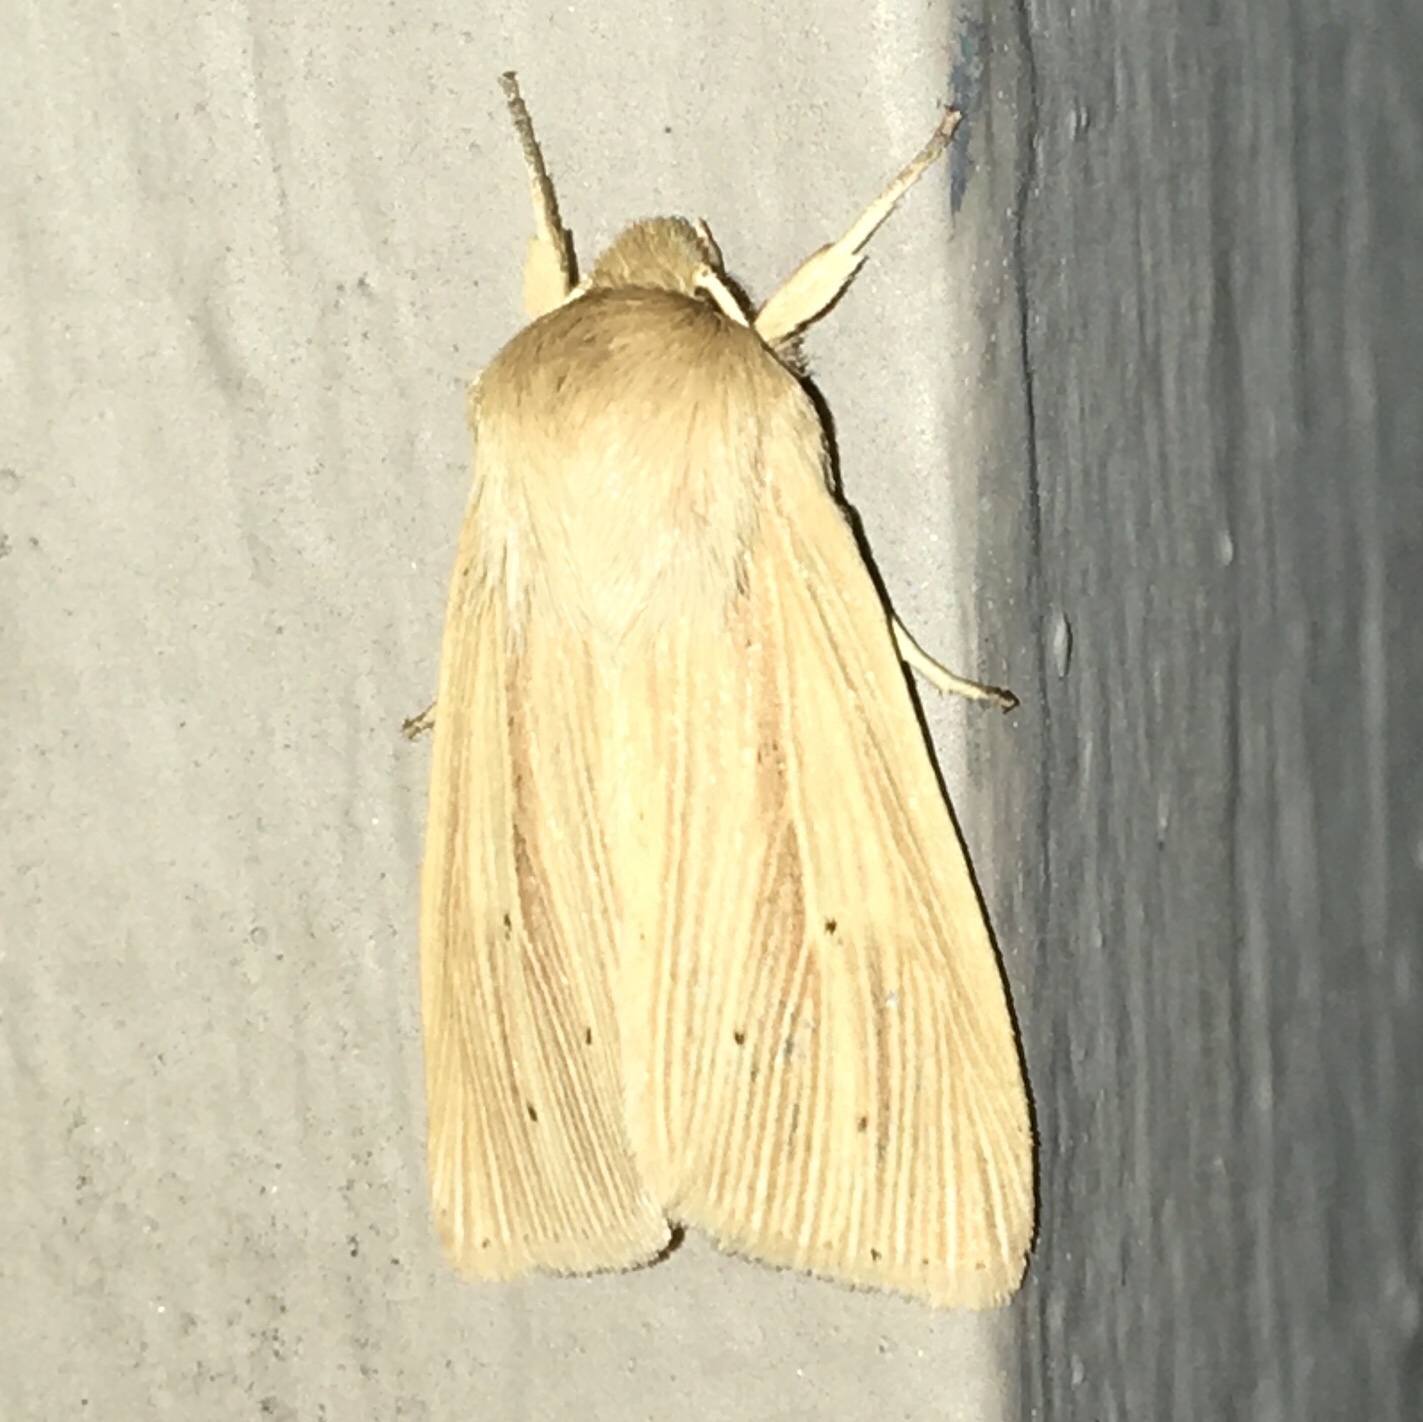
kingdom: Animalia
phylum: Arthropoda
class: Insecta
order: Lepidoptera
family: Noctuidae
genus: Mythimna
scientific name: Mythimna oxygala
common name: Lesser wainscot
